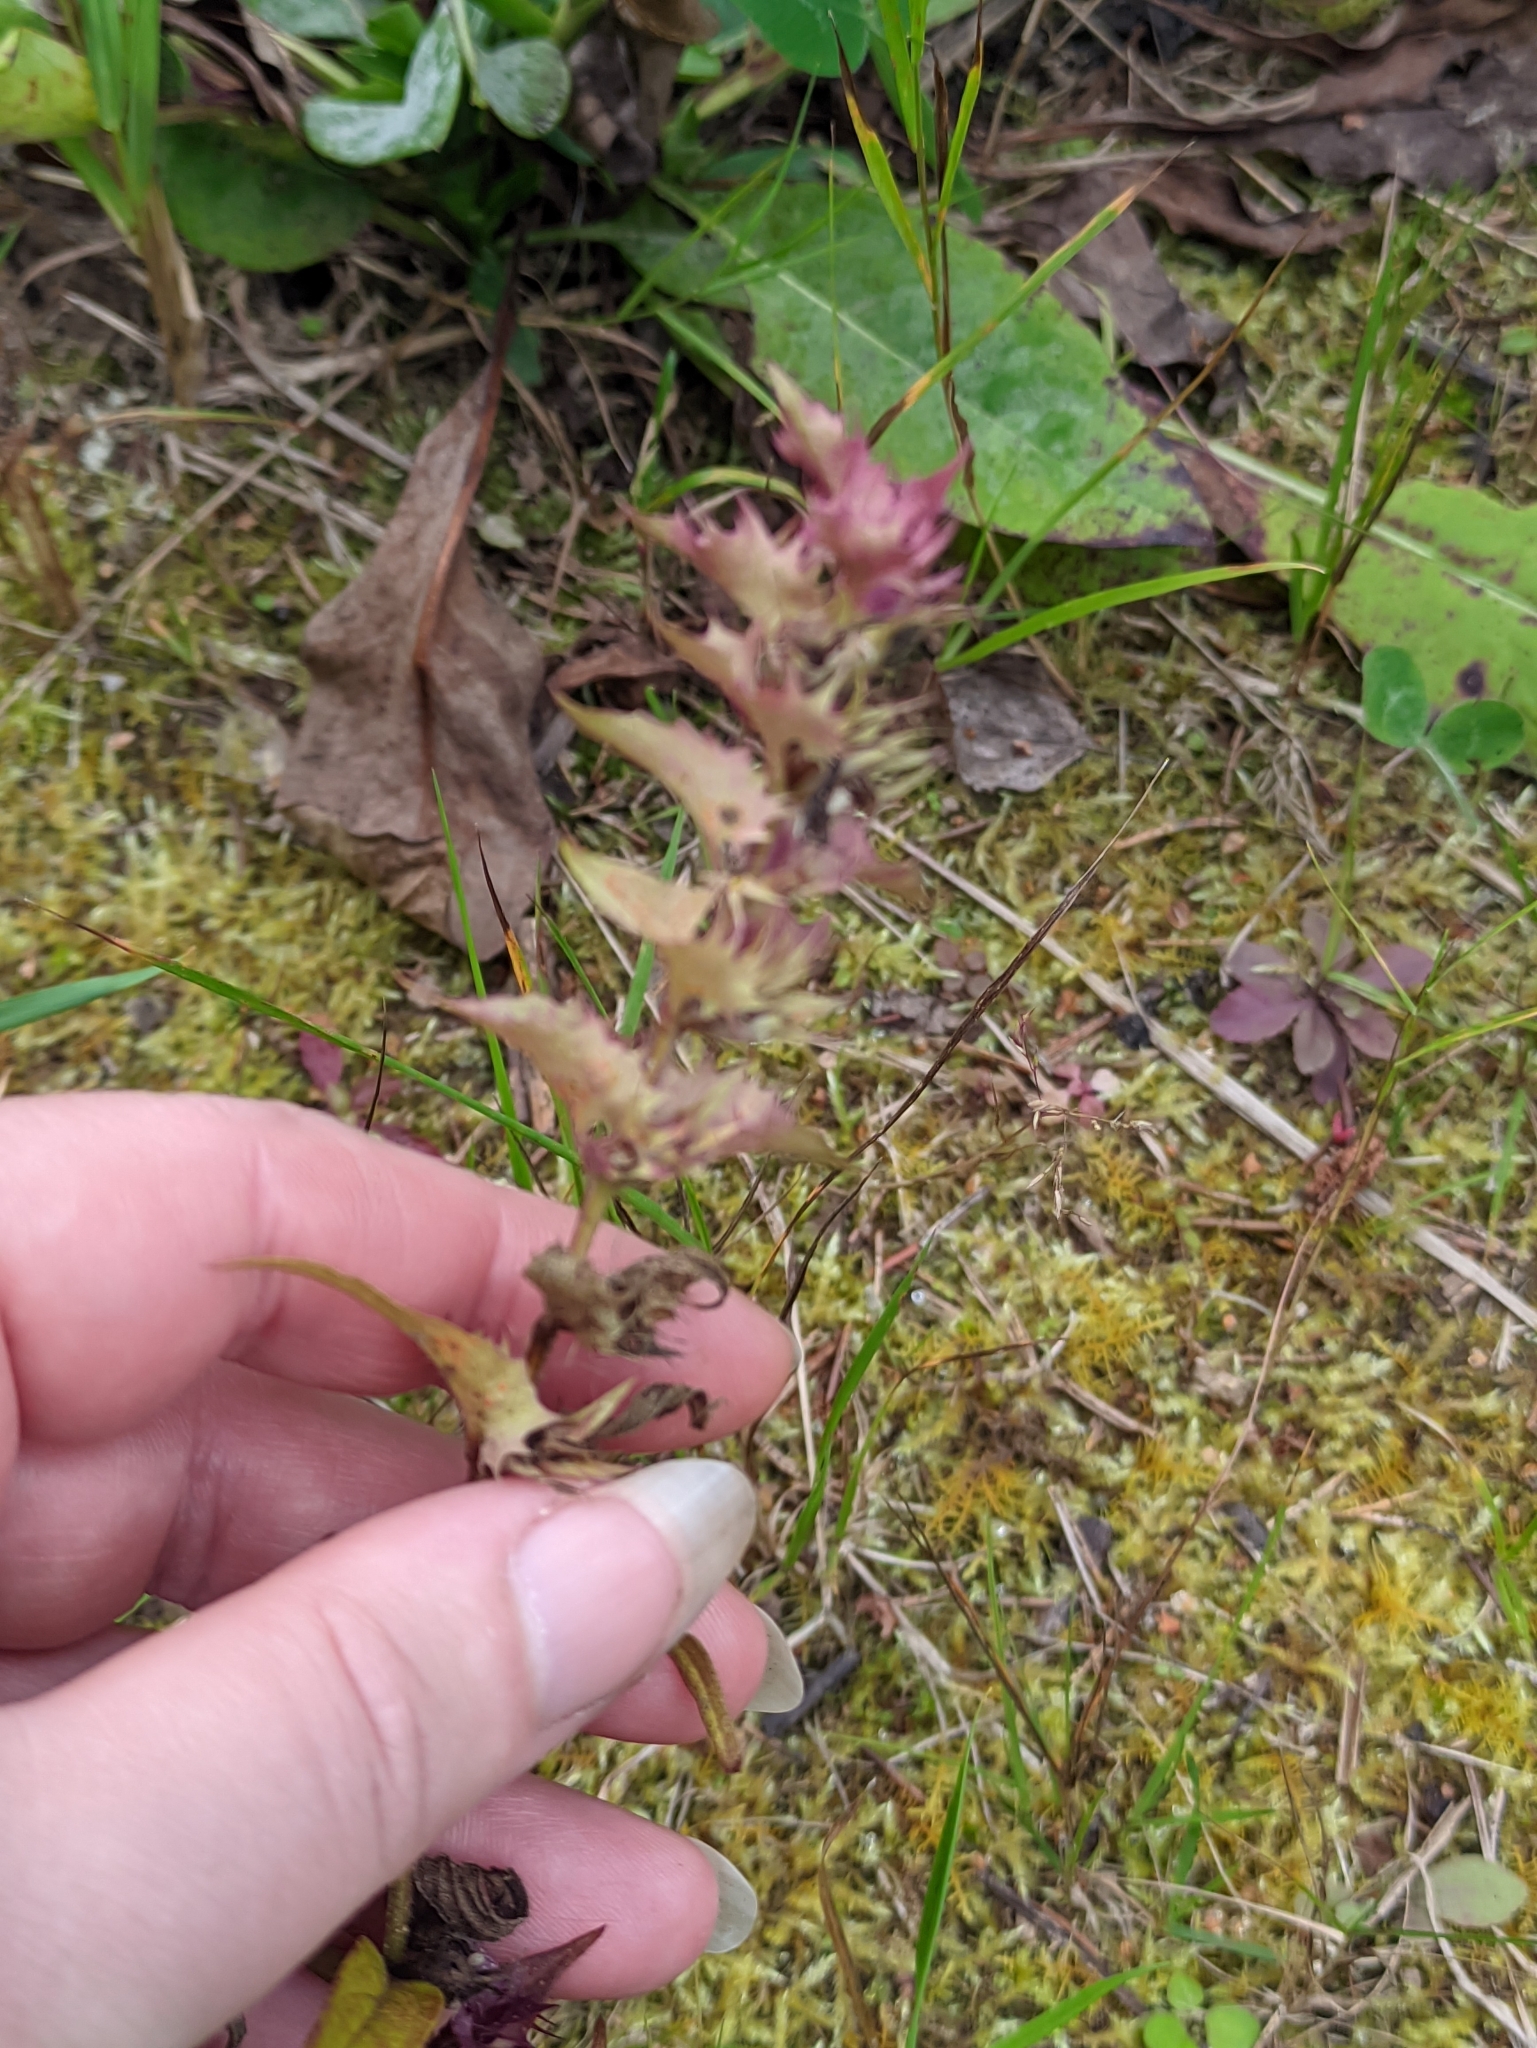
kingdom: Plantae
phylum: Tracheophyta
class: Magnoliopsida
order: Lamiales
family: Orobanchaceae
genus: Melampyrum
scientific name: Melampyrum nemorosum
